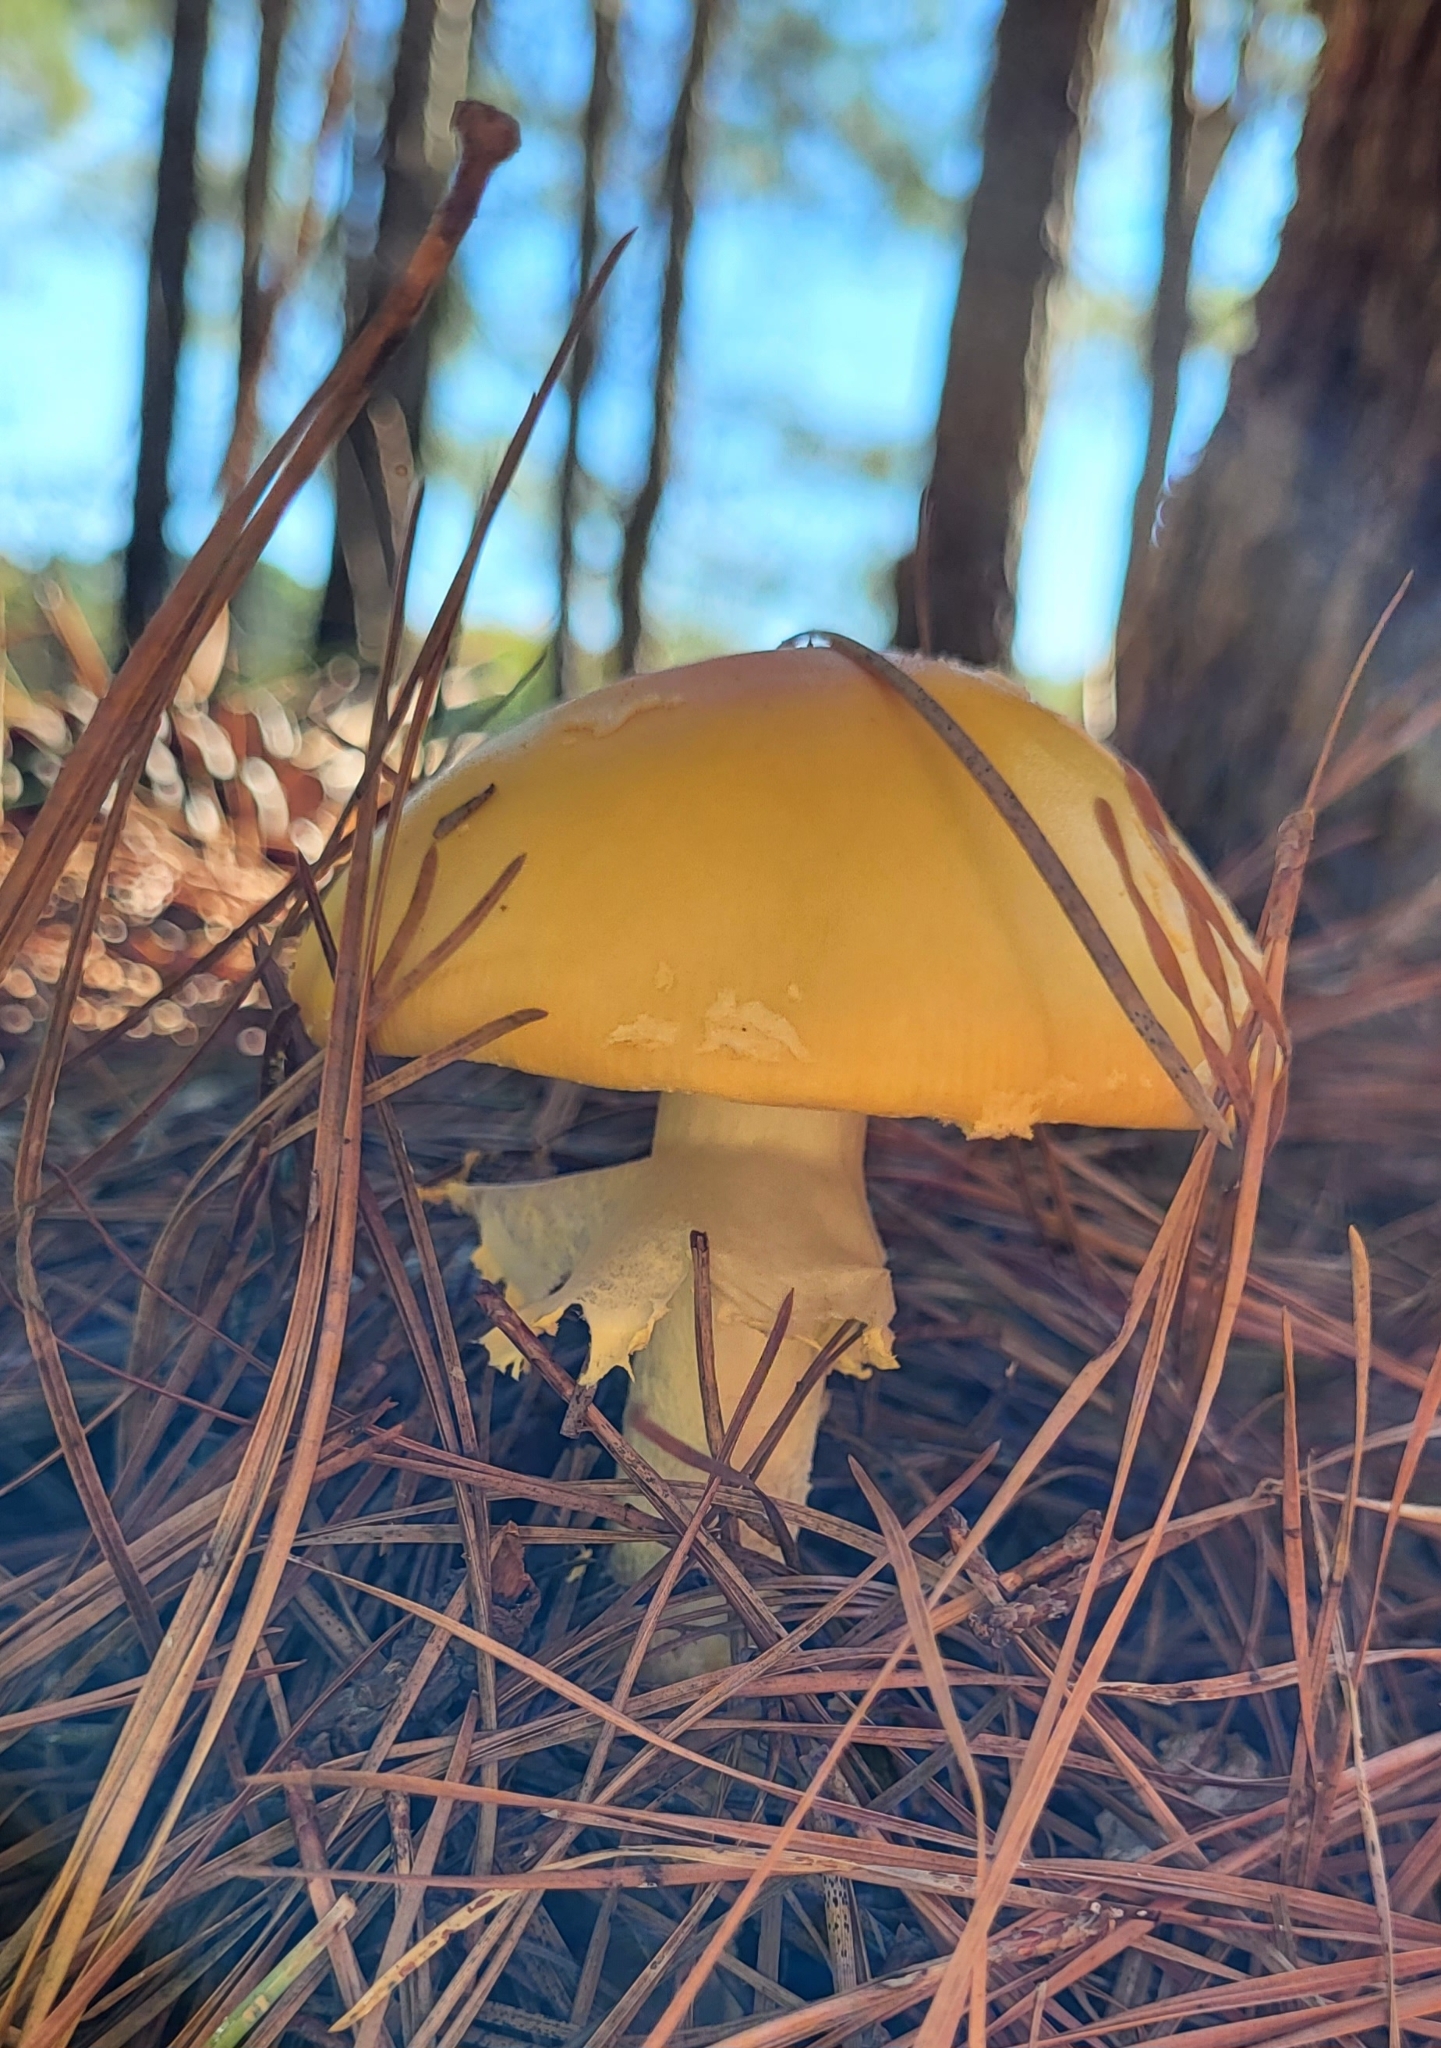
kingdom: Fungi
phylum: Basidiomycota
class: Agaricomycetes
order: Agaricales
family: Amanitaceae
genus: Amanita
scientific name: Amanita muscaria
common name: Fly agaric
